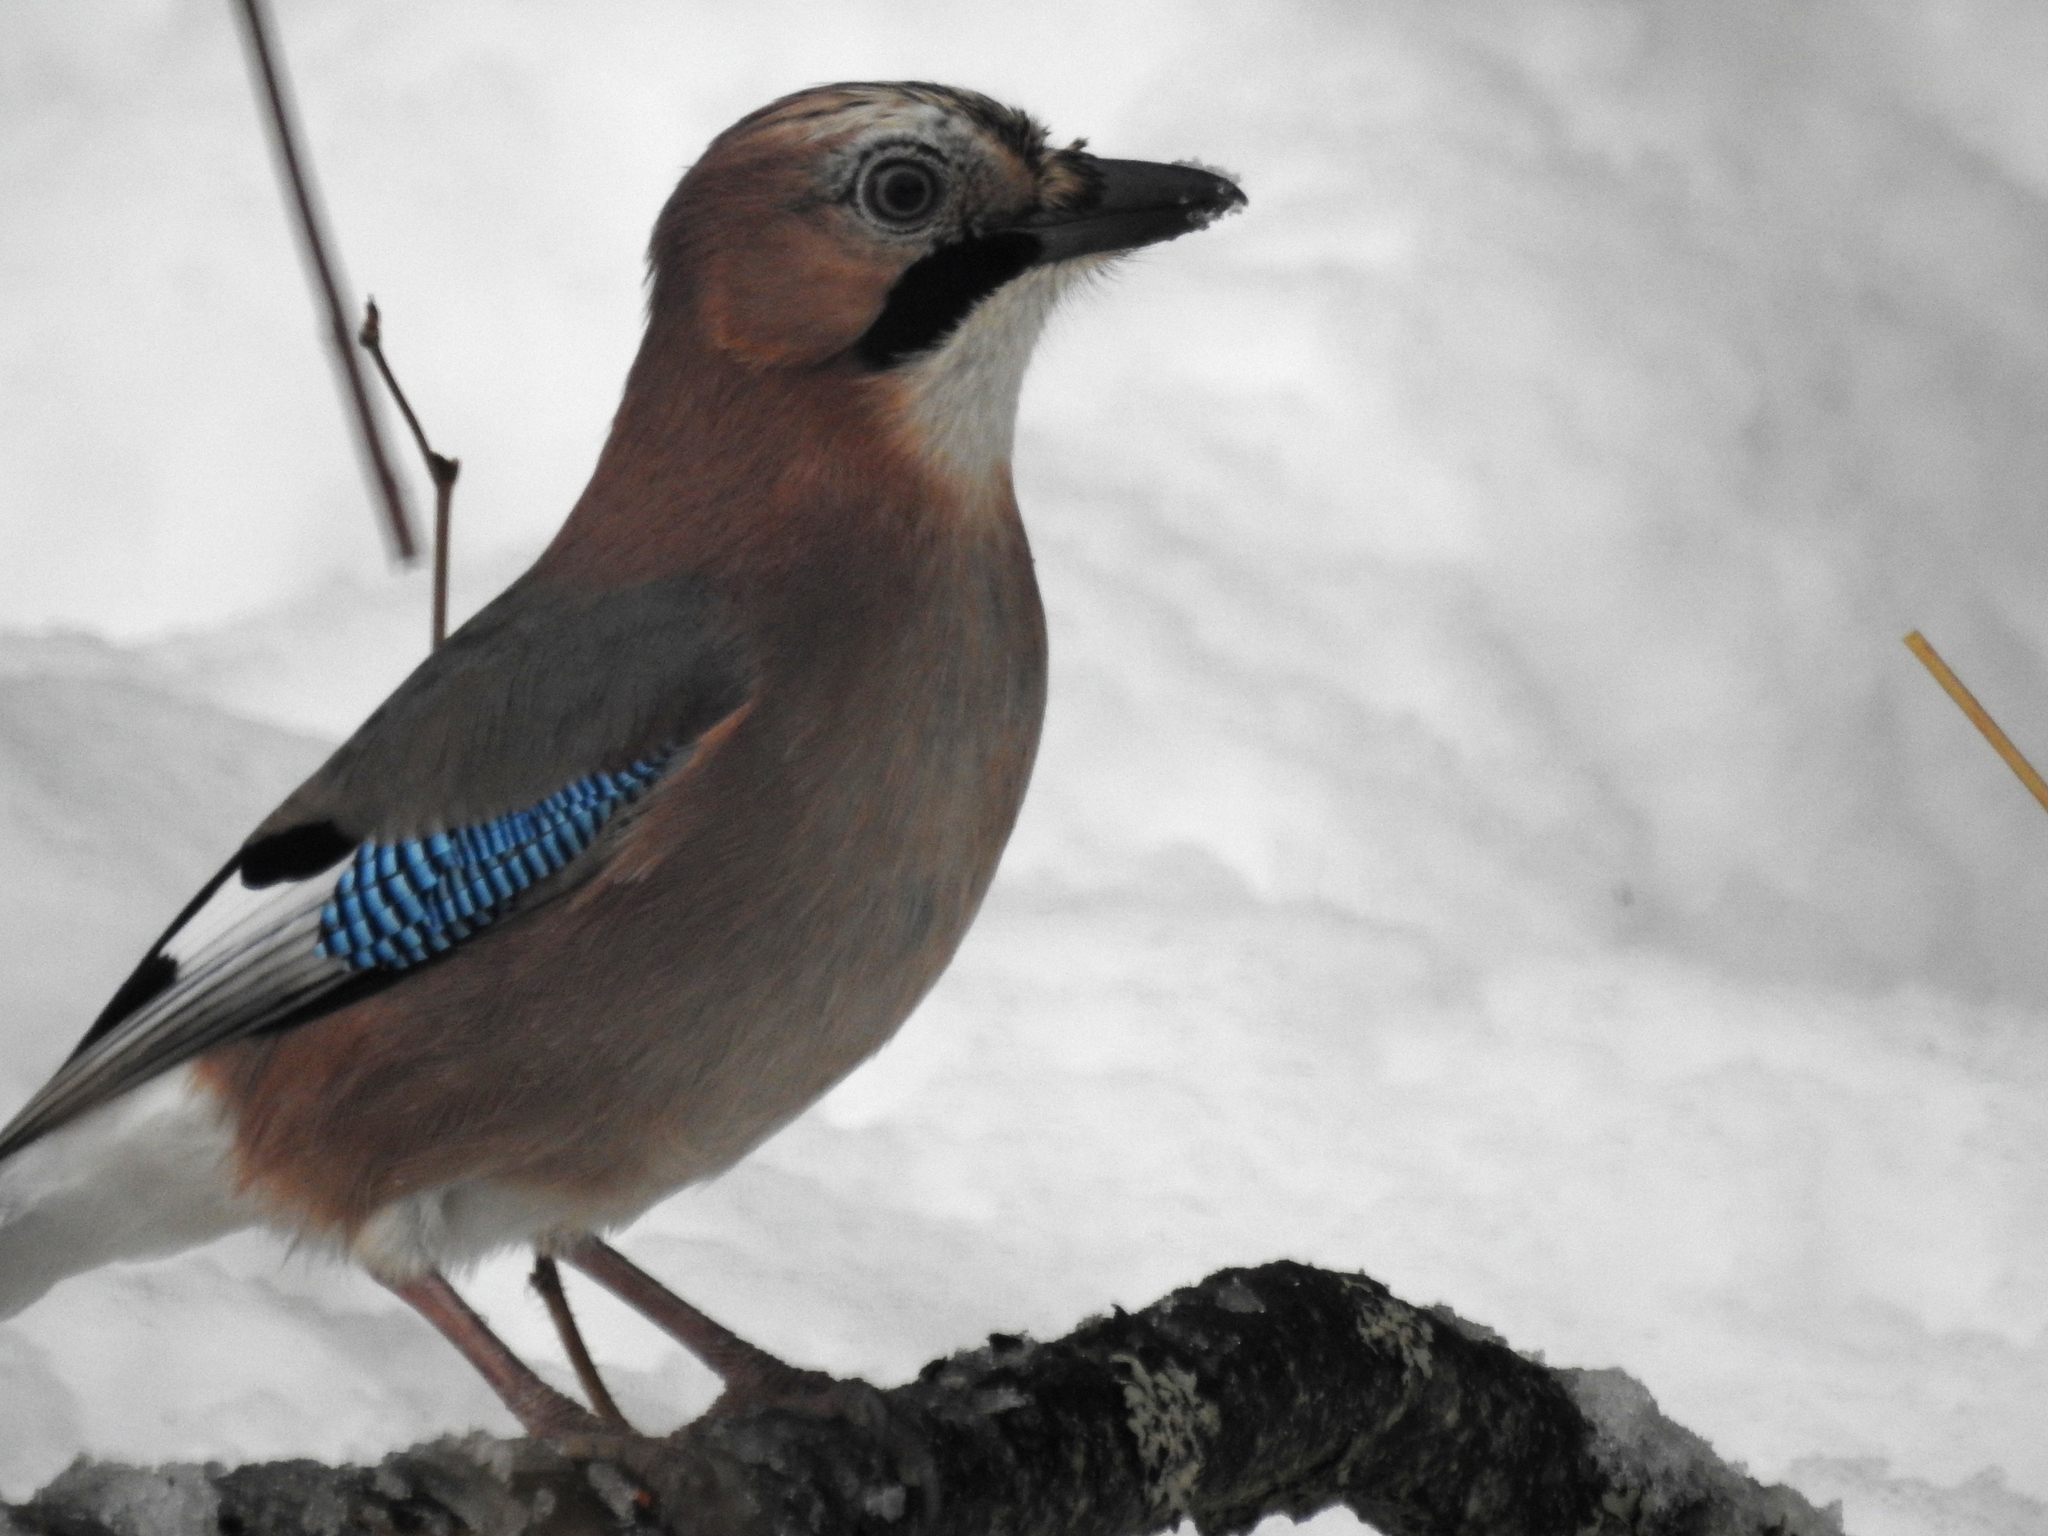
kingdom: Animalia
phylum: Chordata
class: Aves
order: Passeriformes
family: Corvidae
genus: Garrulus
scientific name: Garrulus glandarius
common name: Eurasian jay
